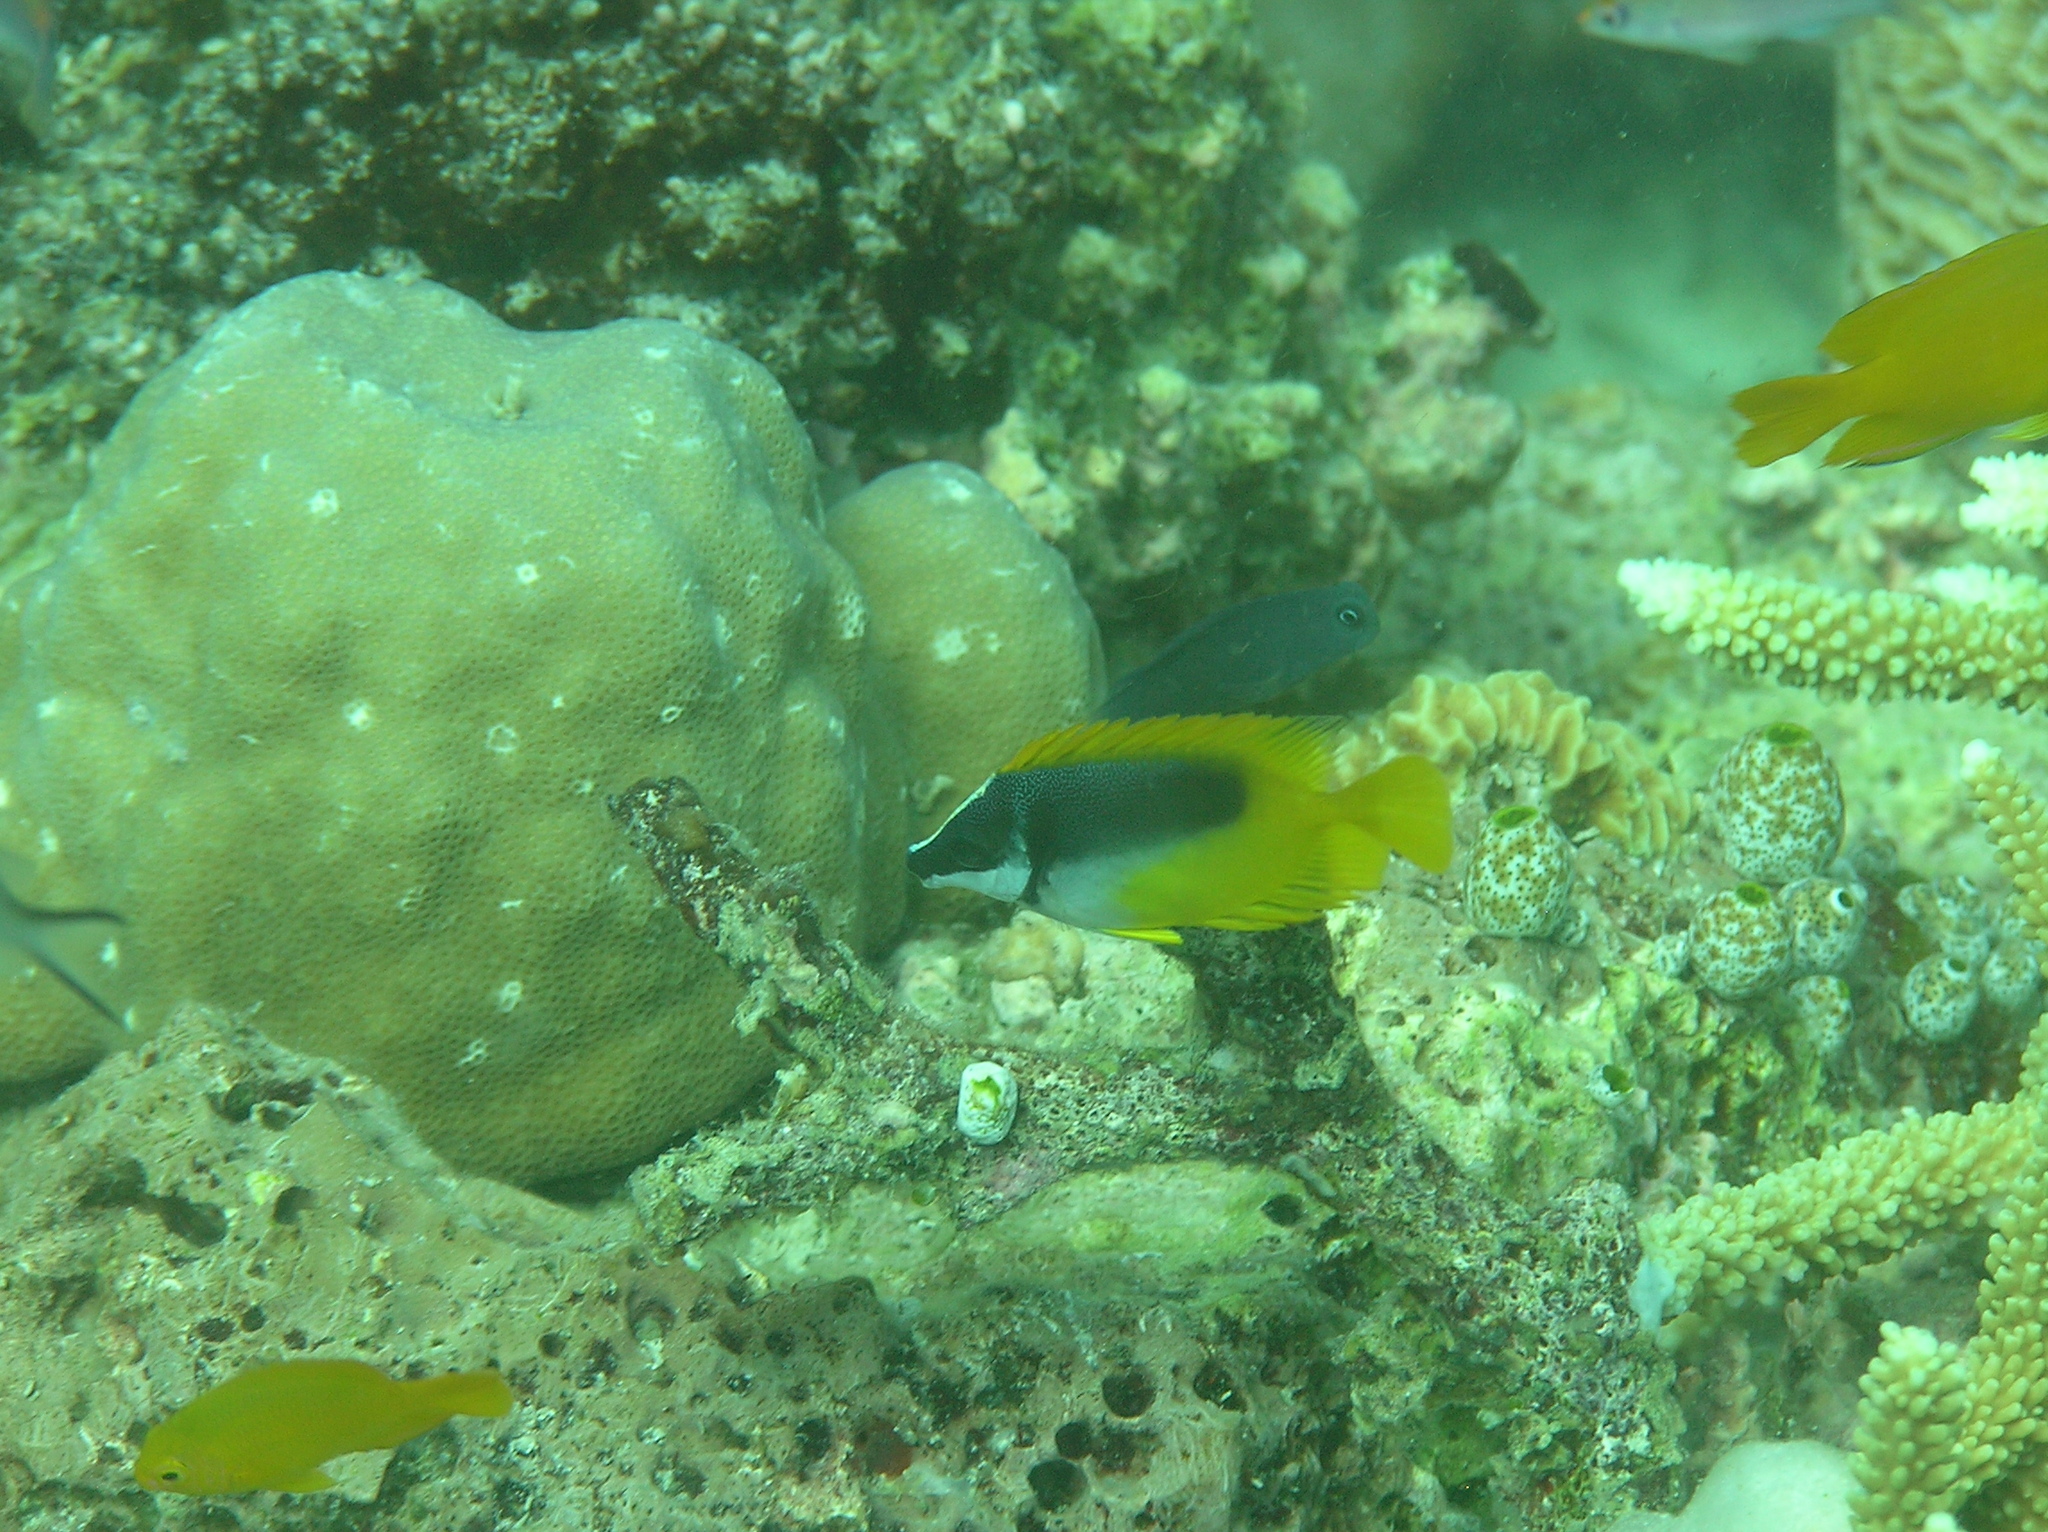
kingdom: Animalia
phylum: Chordata
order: Perciformes
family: Siganidae
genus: Siganus
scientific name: Siganus unimaculatus
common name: Blotched foxface
